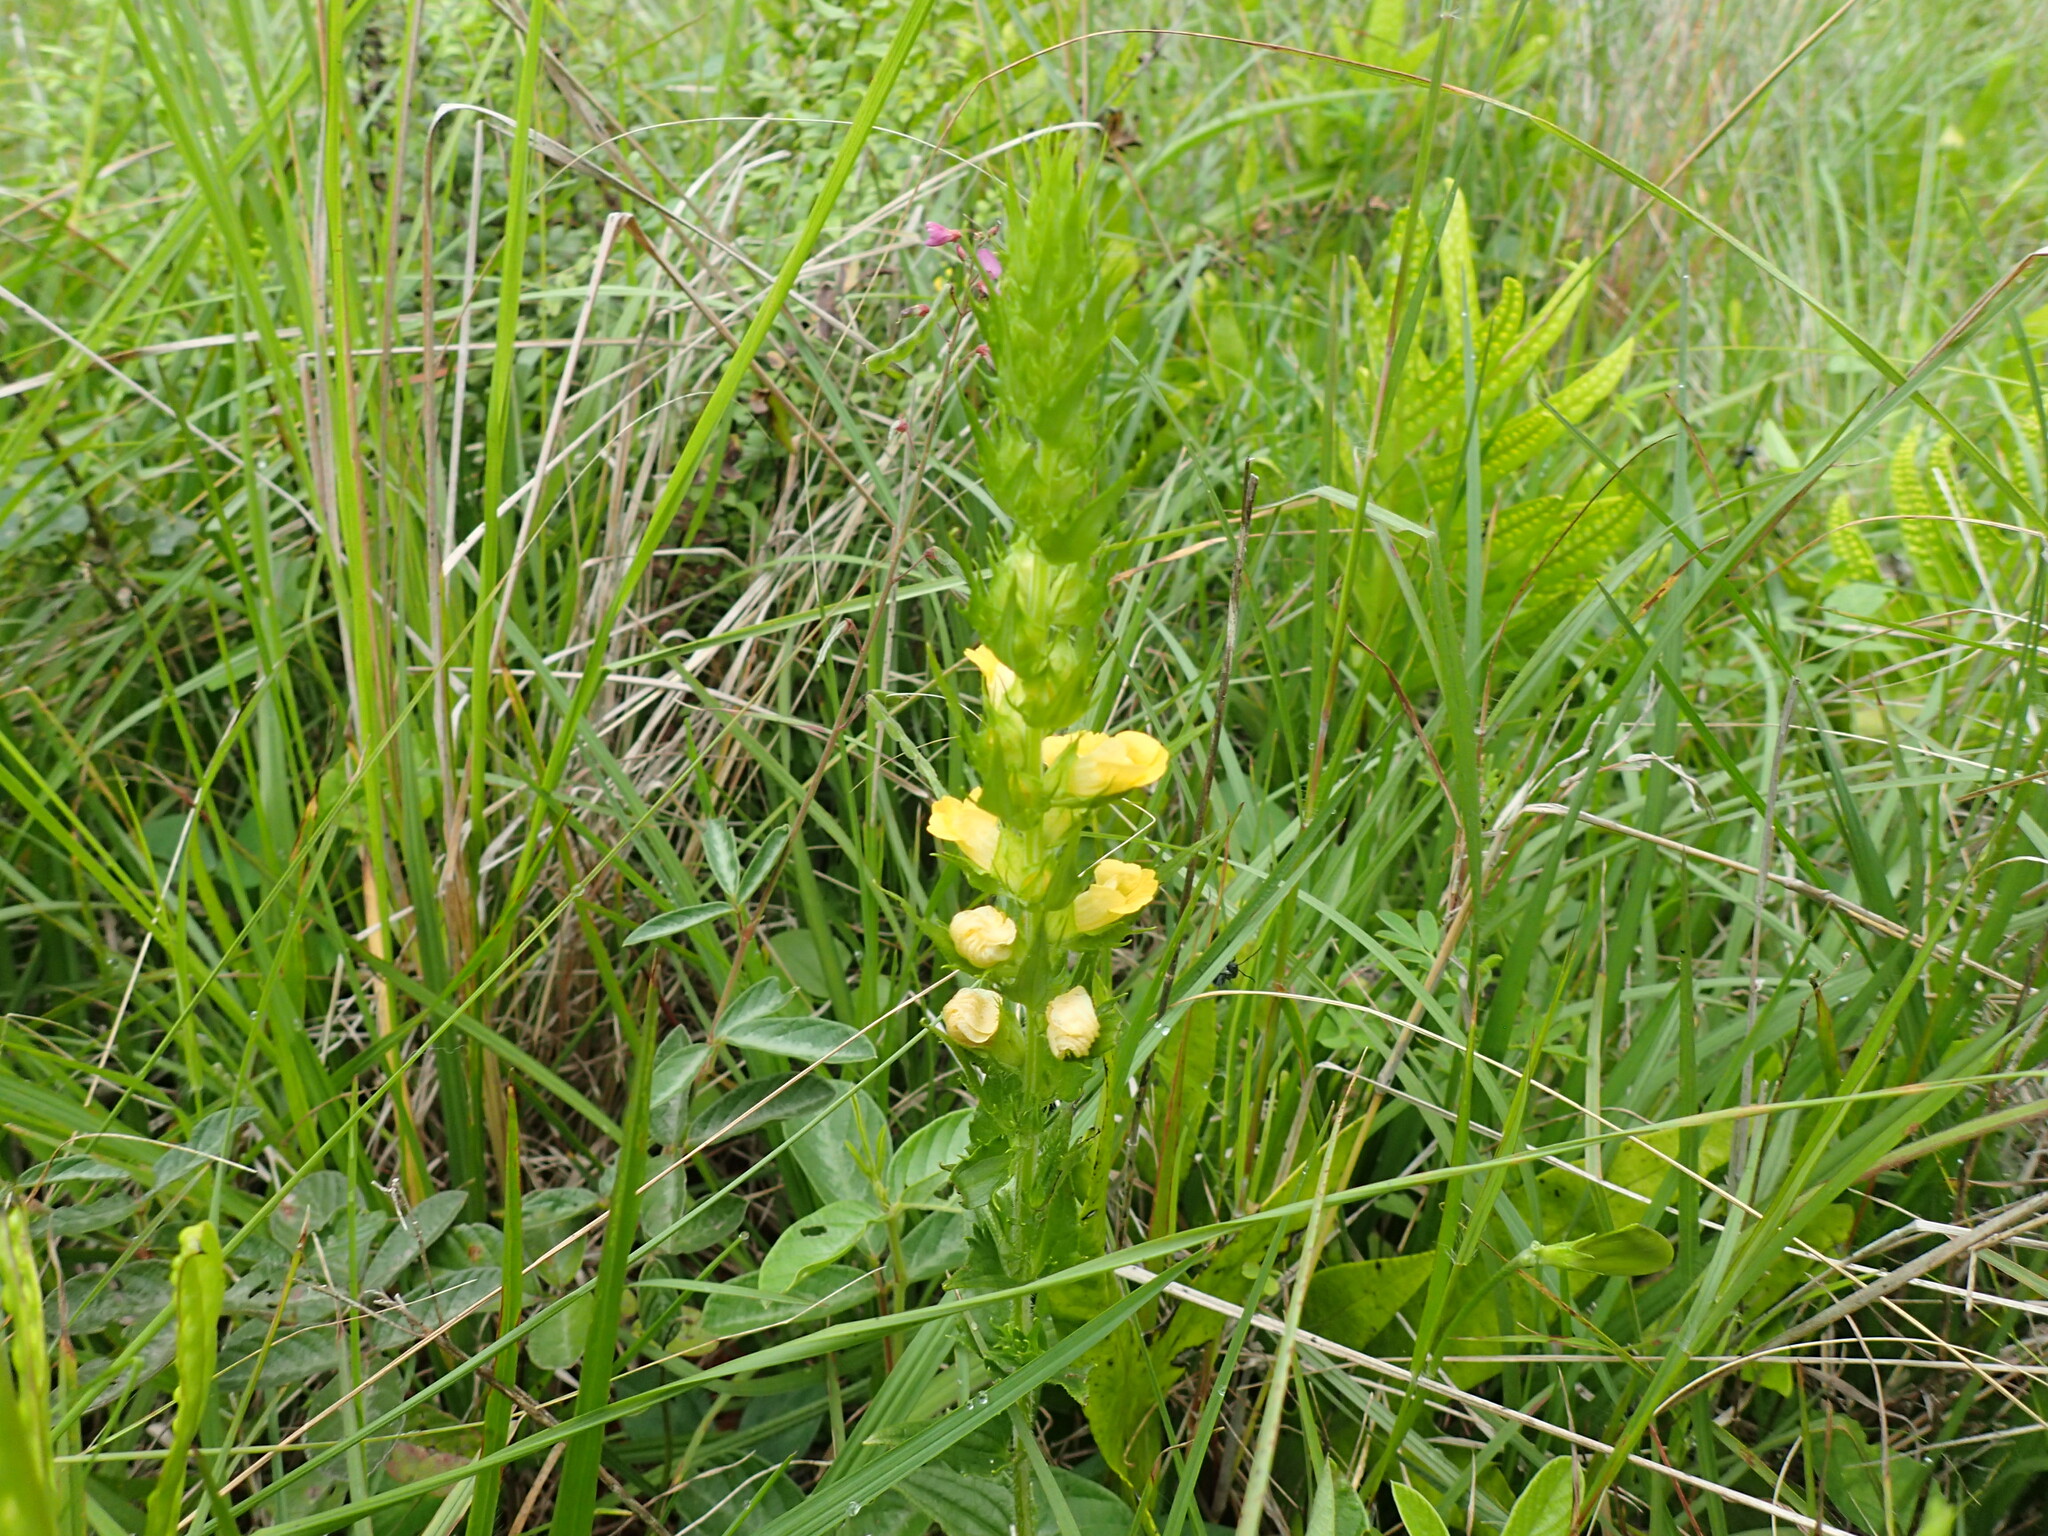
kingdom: Plantae
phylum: Tracheophyta
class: Magnoliopsida
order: Lamiales
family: Orobanchaceae
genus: Alectra
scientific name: Alectra sessiliflora
